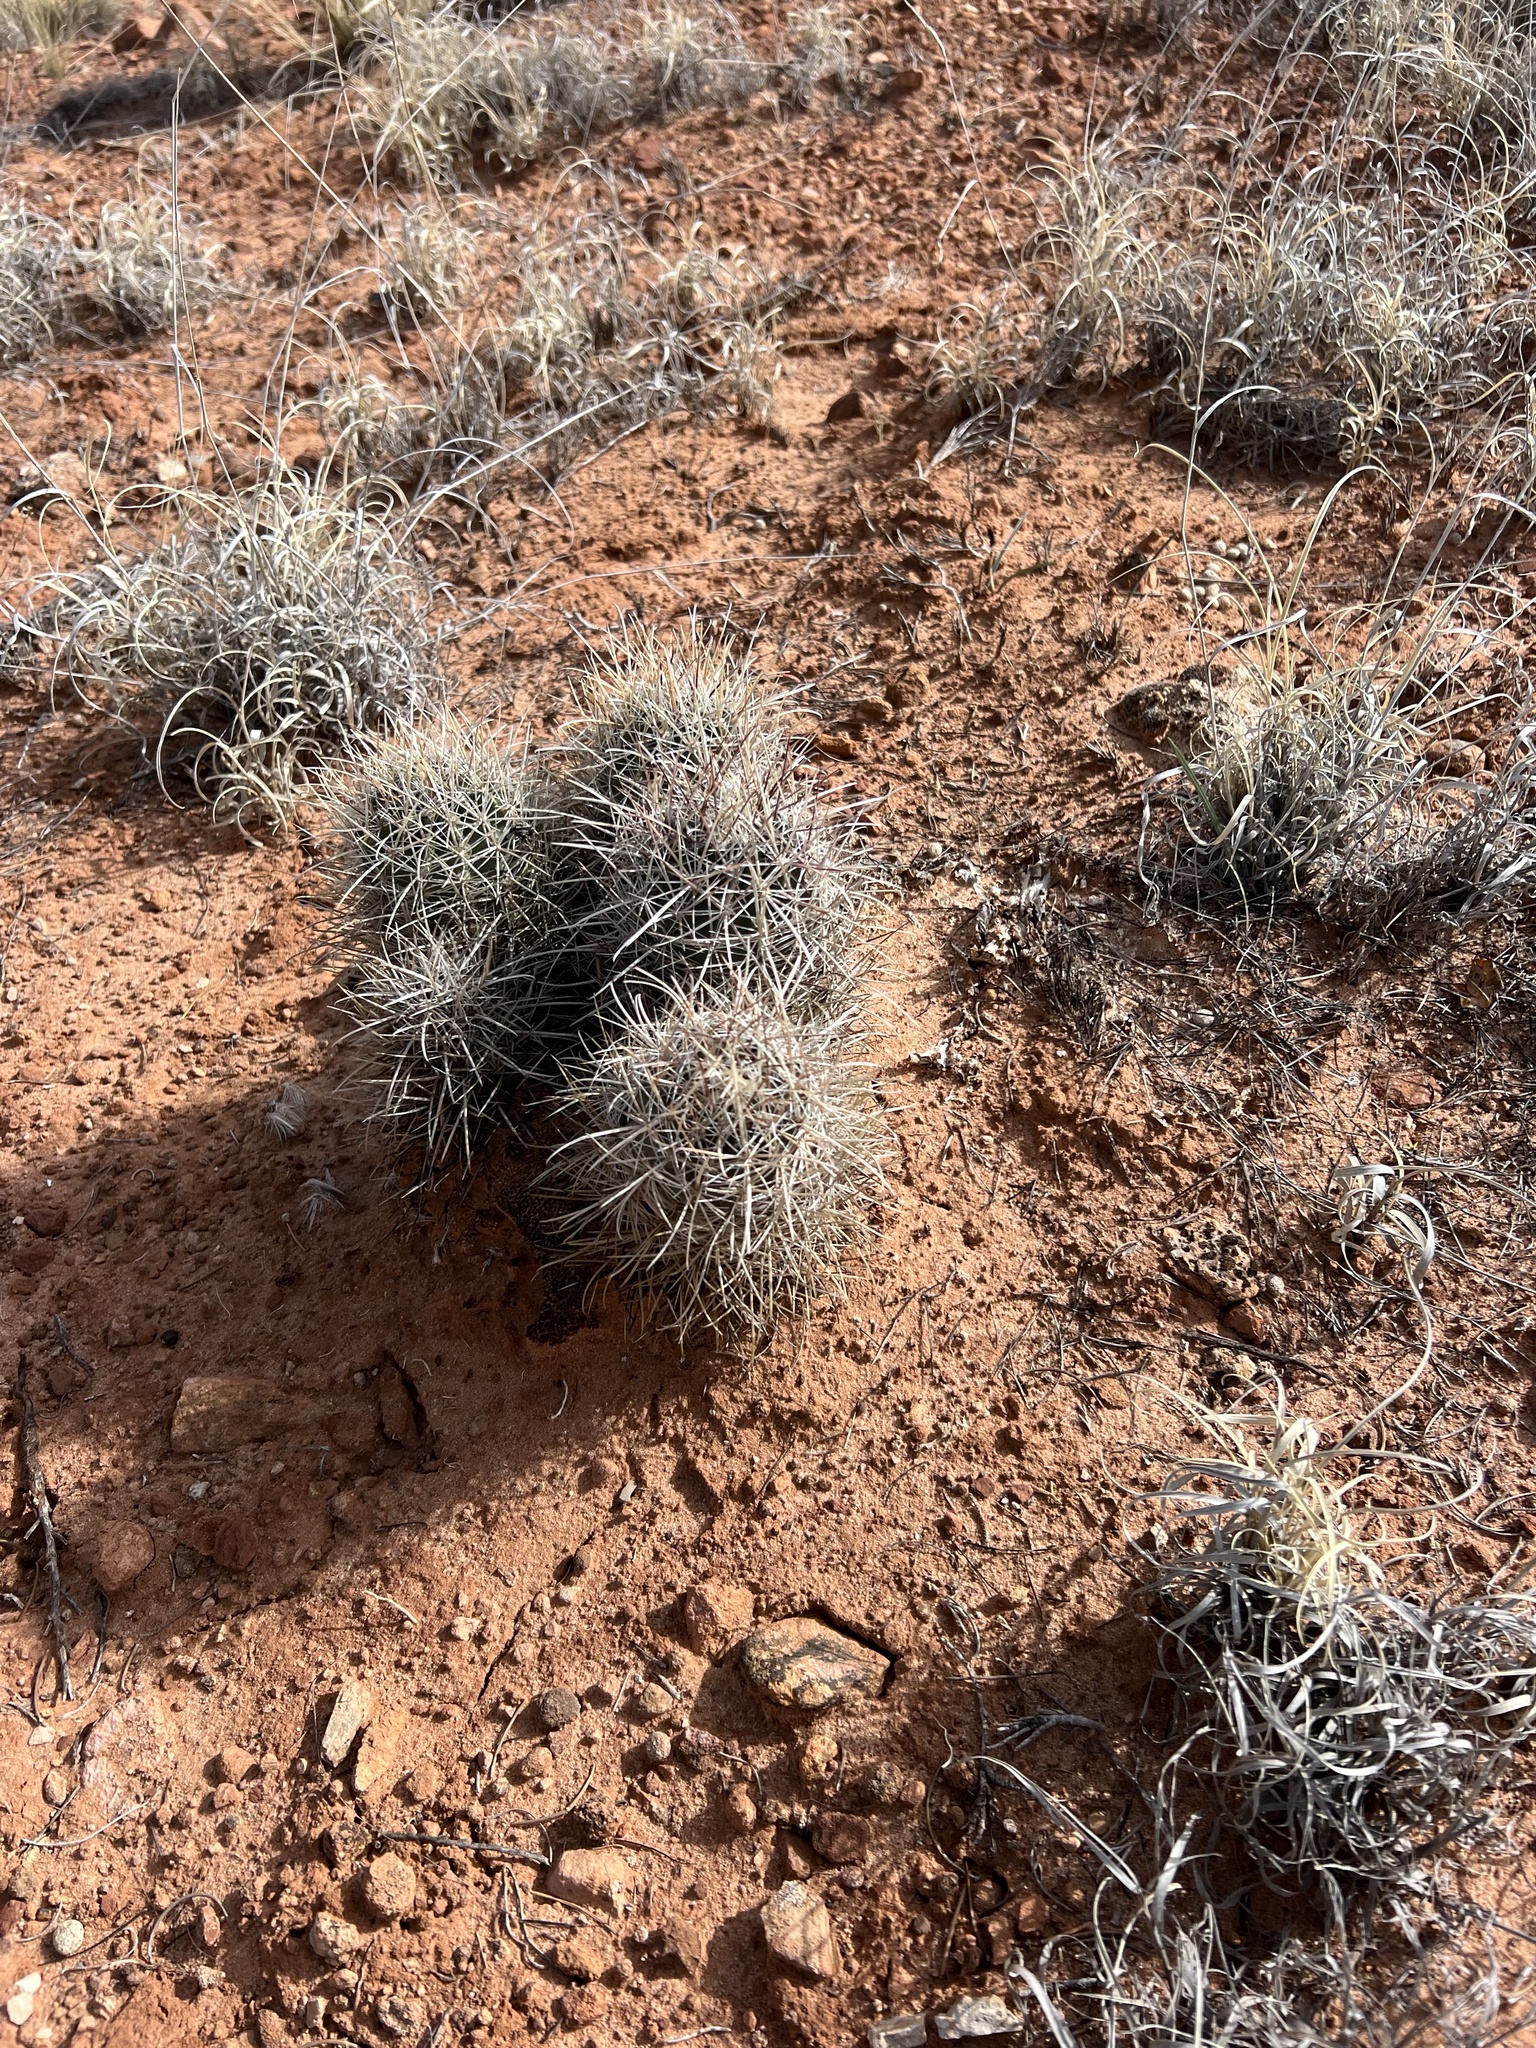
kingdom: Plantae
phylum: Tracheophyta
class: Magnoliopsida
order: Caryophyllales
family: Cactaceae
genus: Sclerocactus
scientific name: Sclerocactus parviflorus
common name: Small-flower fishhook cactus
